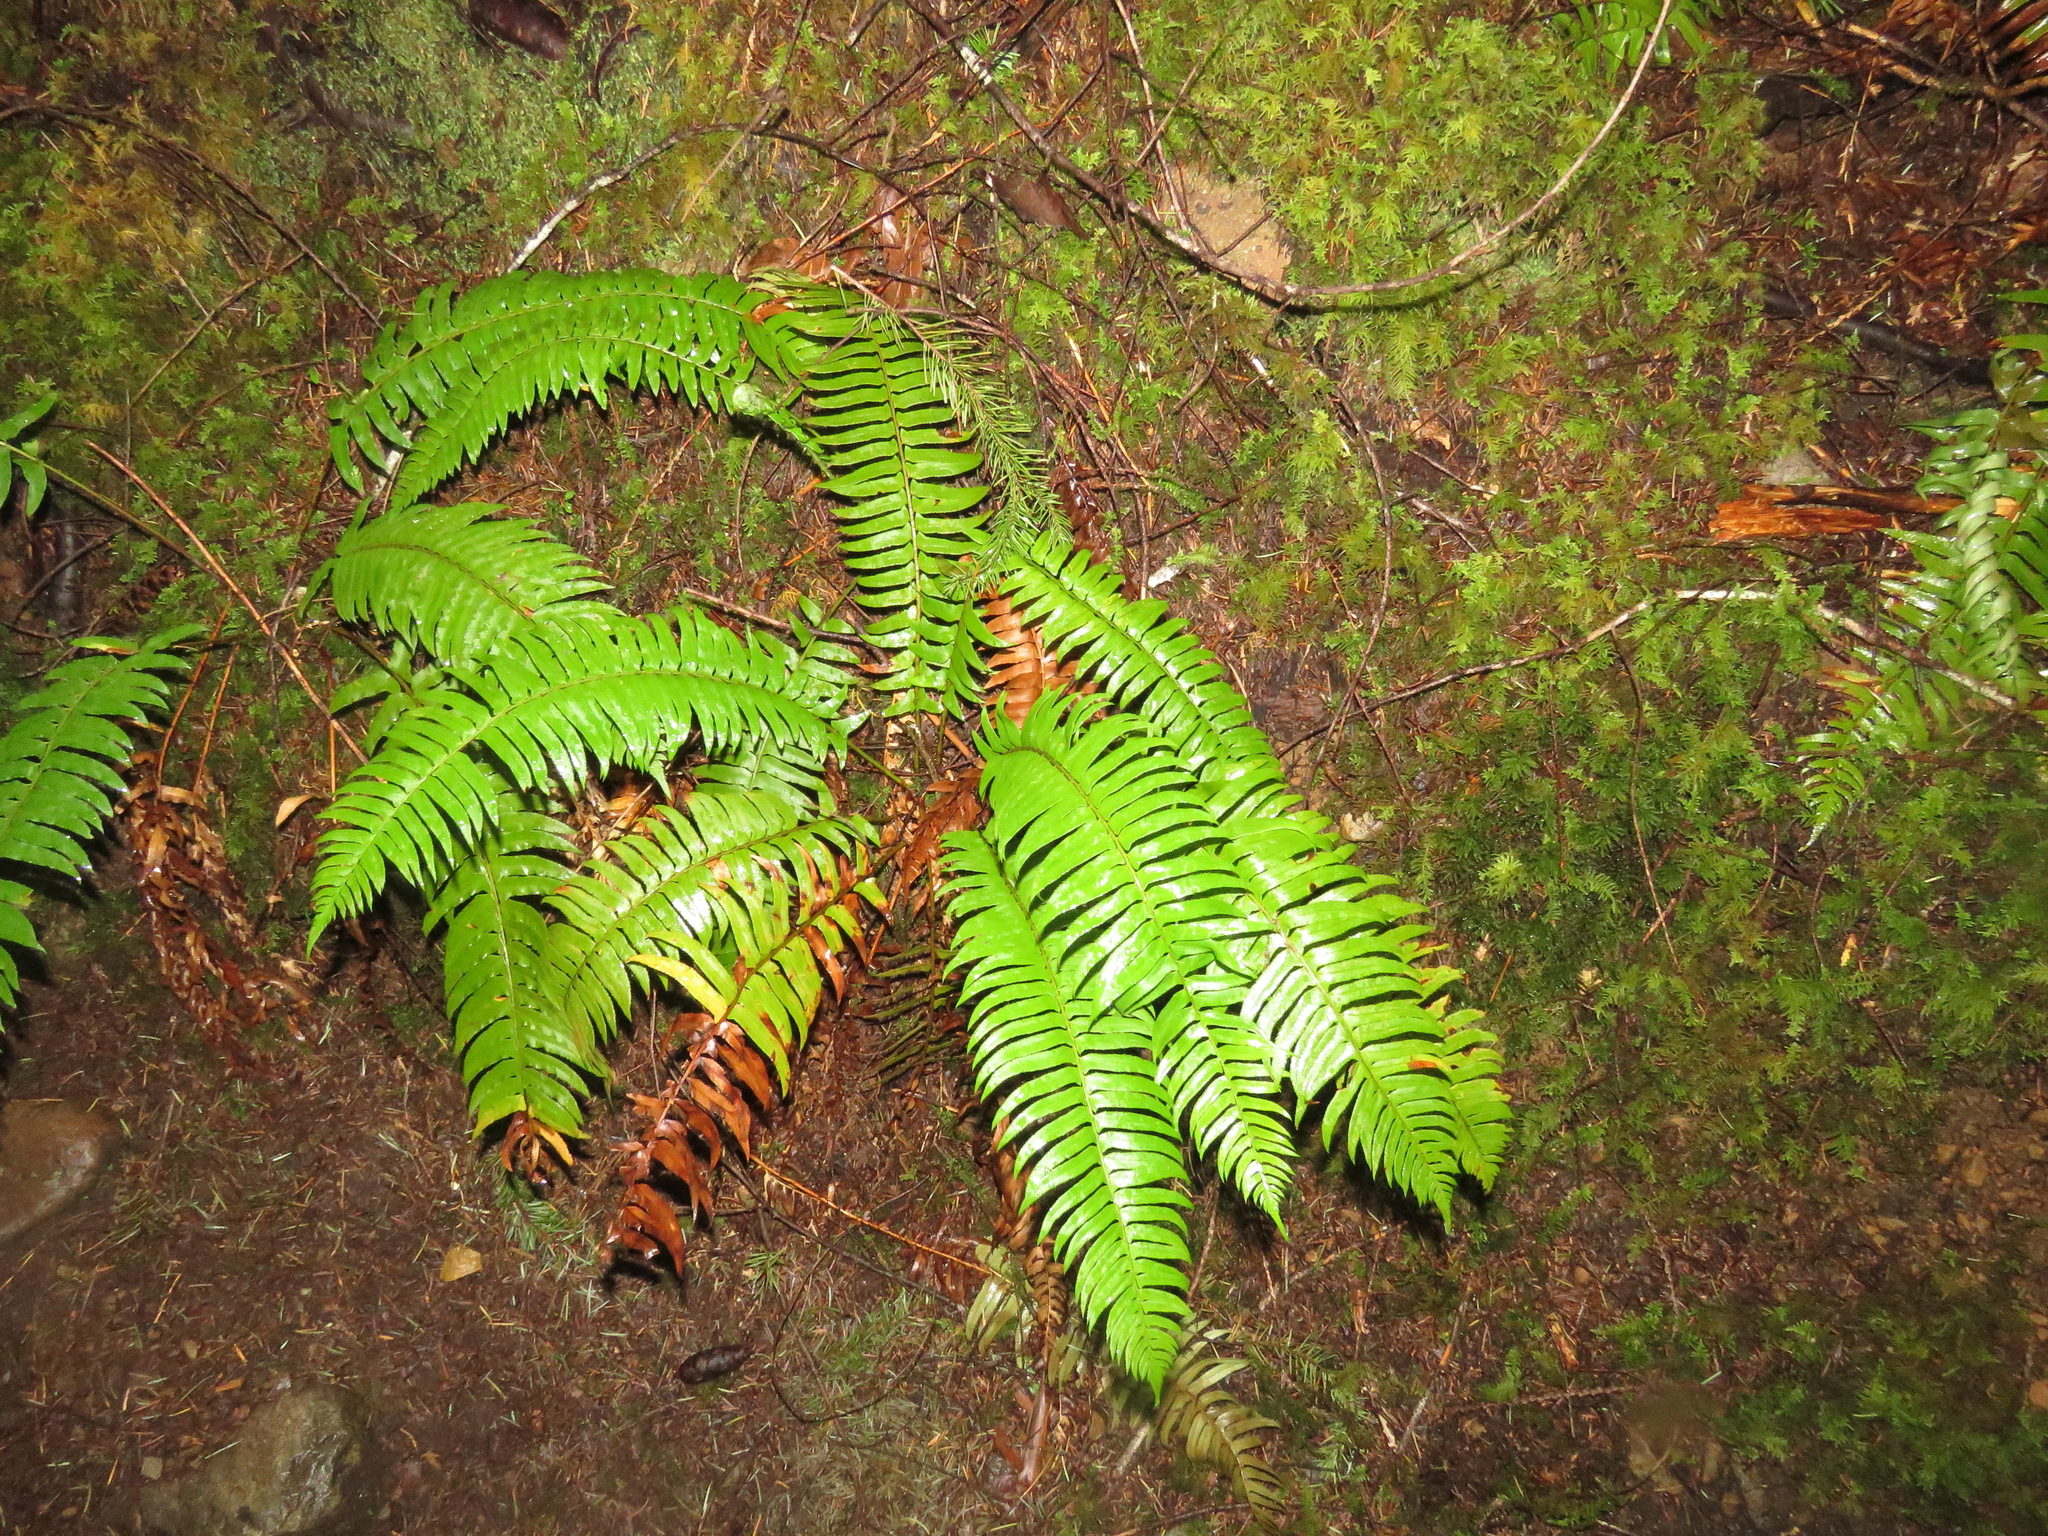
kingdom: Plantae
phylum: Tracheophyta
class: Polypodiopsida
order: Polypodiales
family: Dryopteridaceae
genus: Polystichum
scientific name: Polystichum munitum
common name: Western sword-fern
